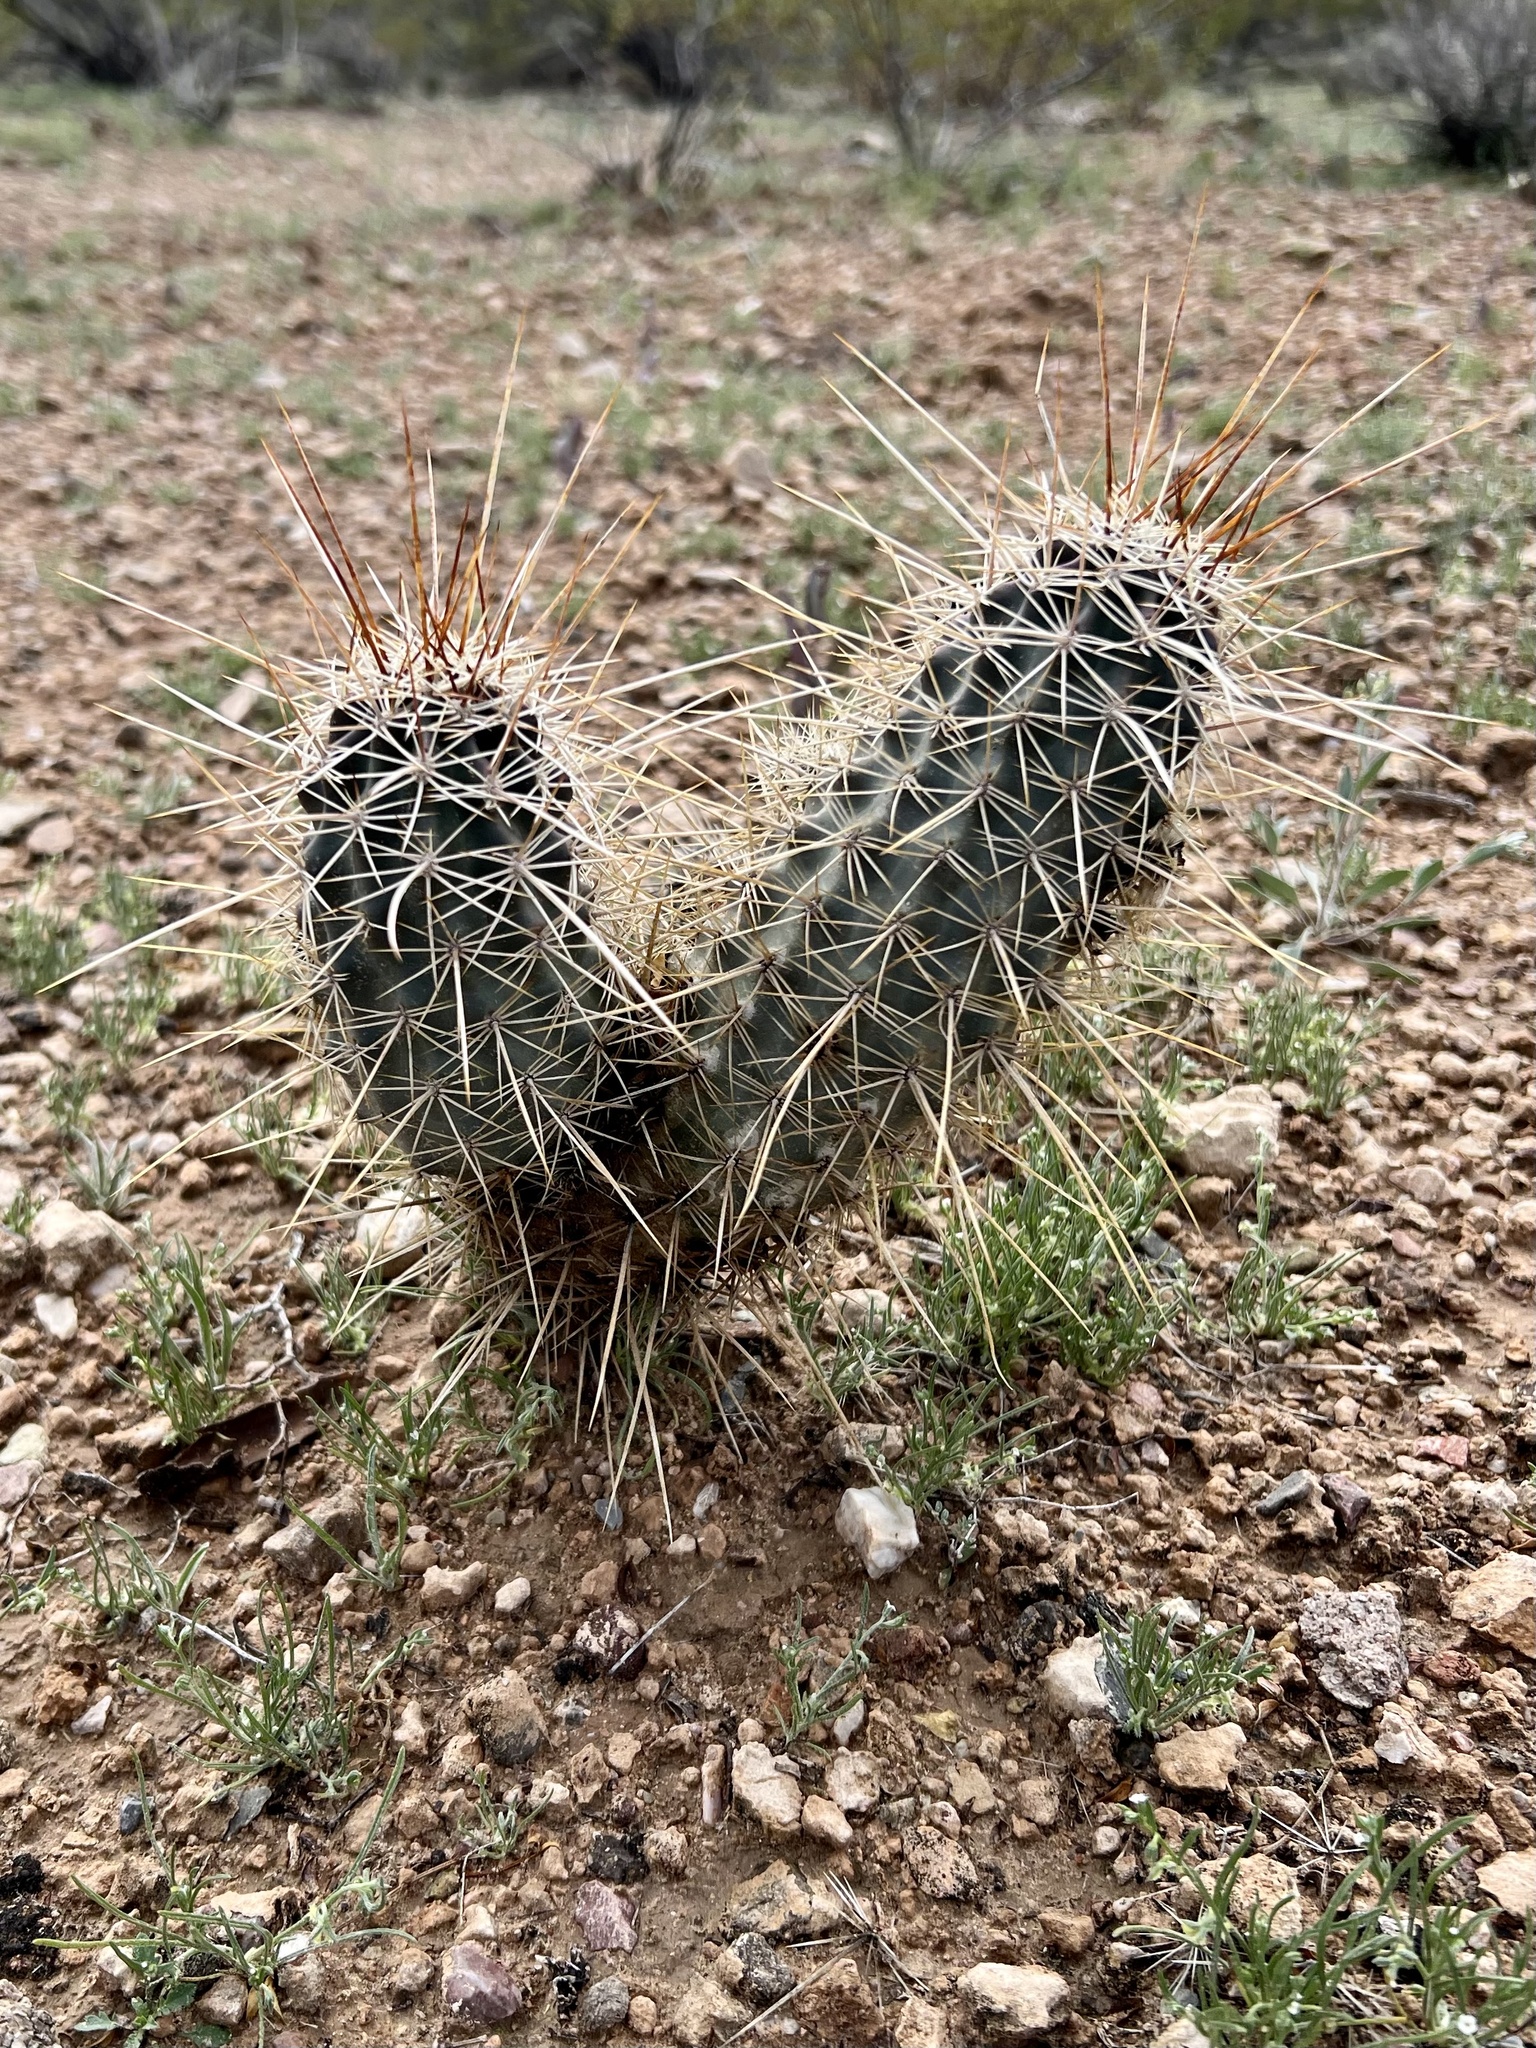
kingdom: Plantae
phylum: Tracheophyta
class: Magnoliopsida
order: Caryophyllales
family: Cactaceae
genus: Echinocereus
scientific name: Echinocereus fasciculatus
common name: Bundle hedgehog
